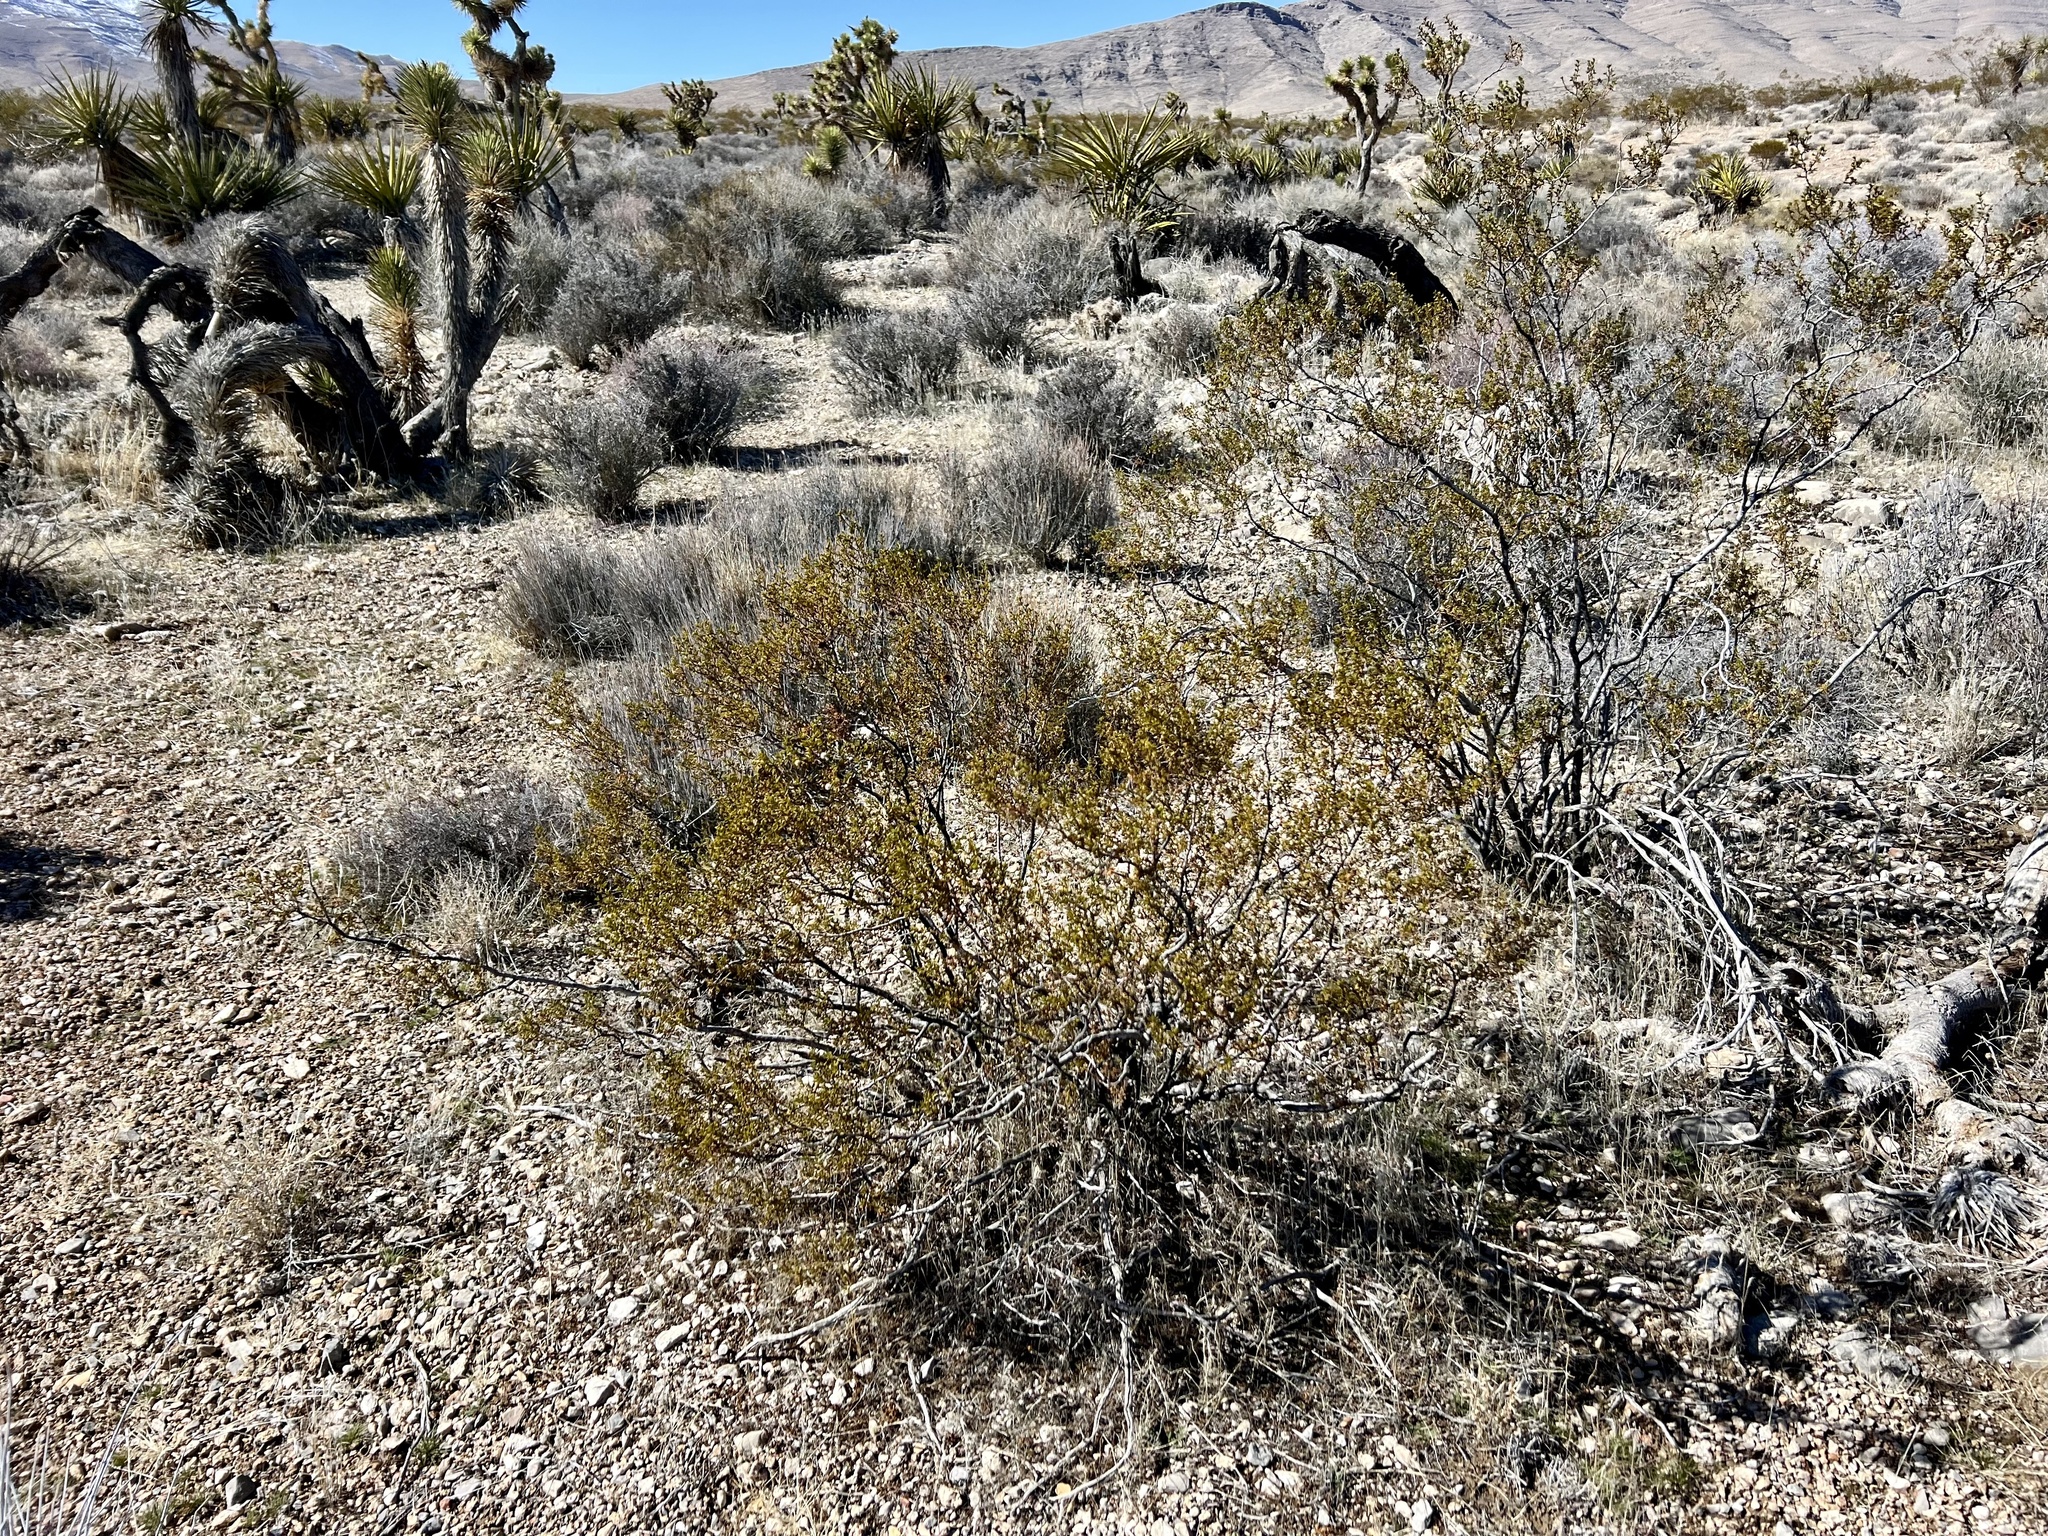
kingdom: Plantae
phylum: Tracheophyta
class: Magnoliopsida
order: Zygophyllales
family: Zygophyllaceae
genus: Larrea
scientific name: Larrea tridentata
